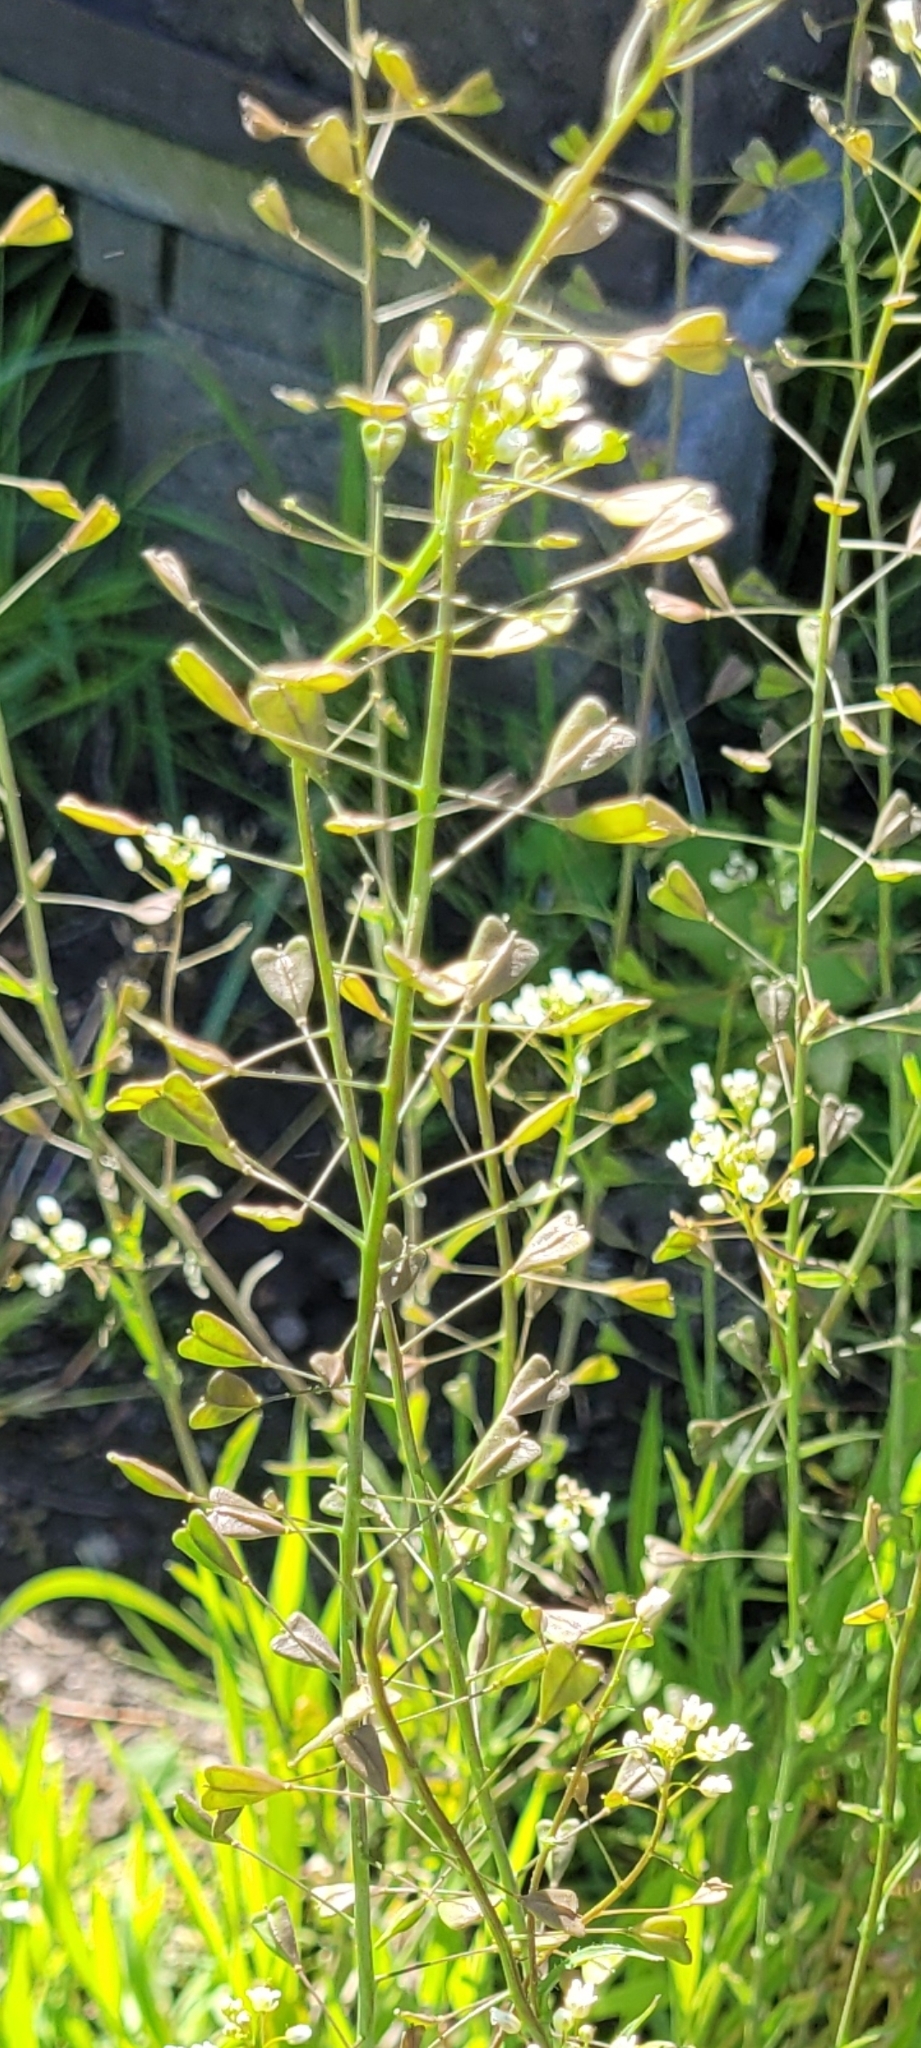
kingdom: Plantae
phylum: Tracheophyta
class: Magnoliopsida
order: Brassicales
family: Brassicaceae
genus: Capsella
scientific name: Capsella bursa-pastoris
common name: Shepherd's purse
